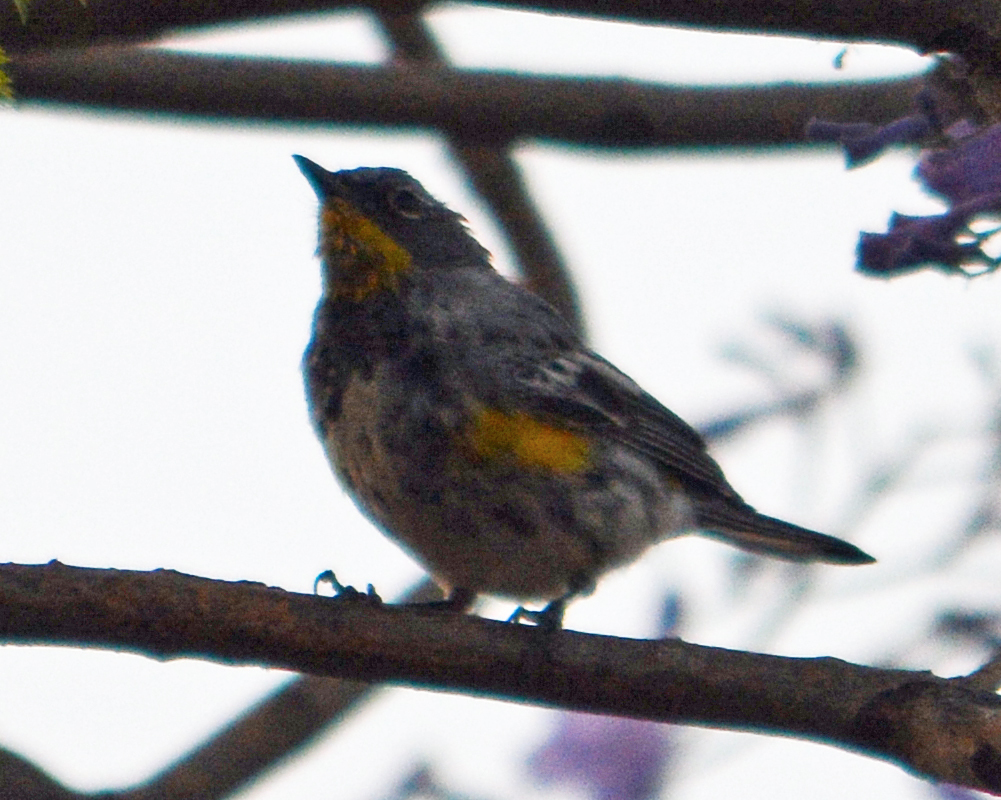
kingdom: Animalia
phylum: Chordata
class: Aves
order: Passeriformes
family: Parulidae
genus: Setophaga
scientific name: Setophaga coronata
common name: Myrtle warbler
